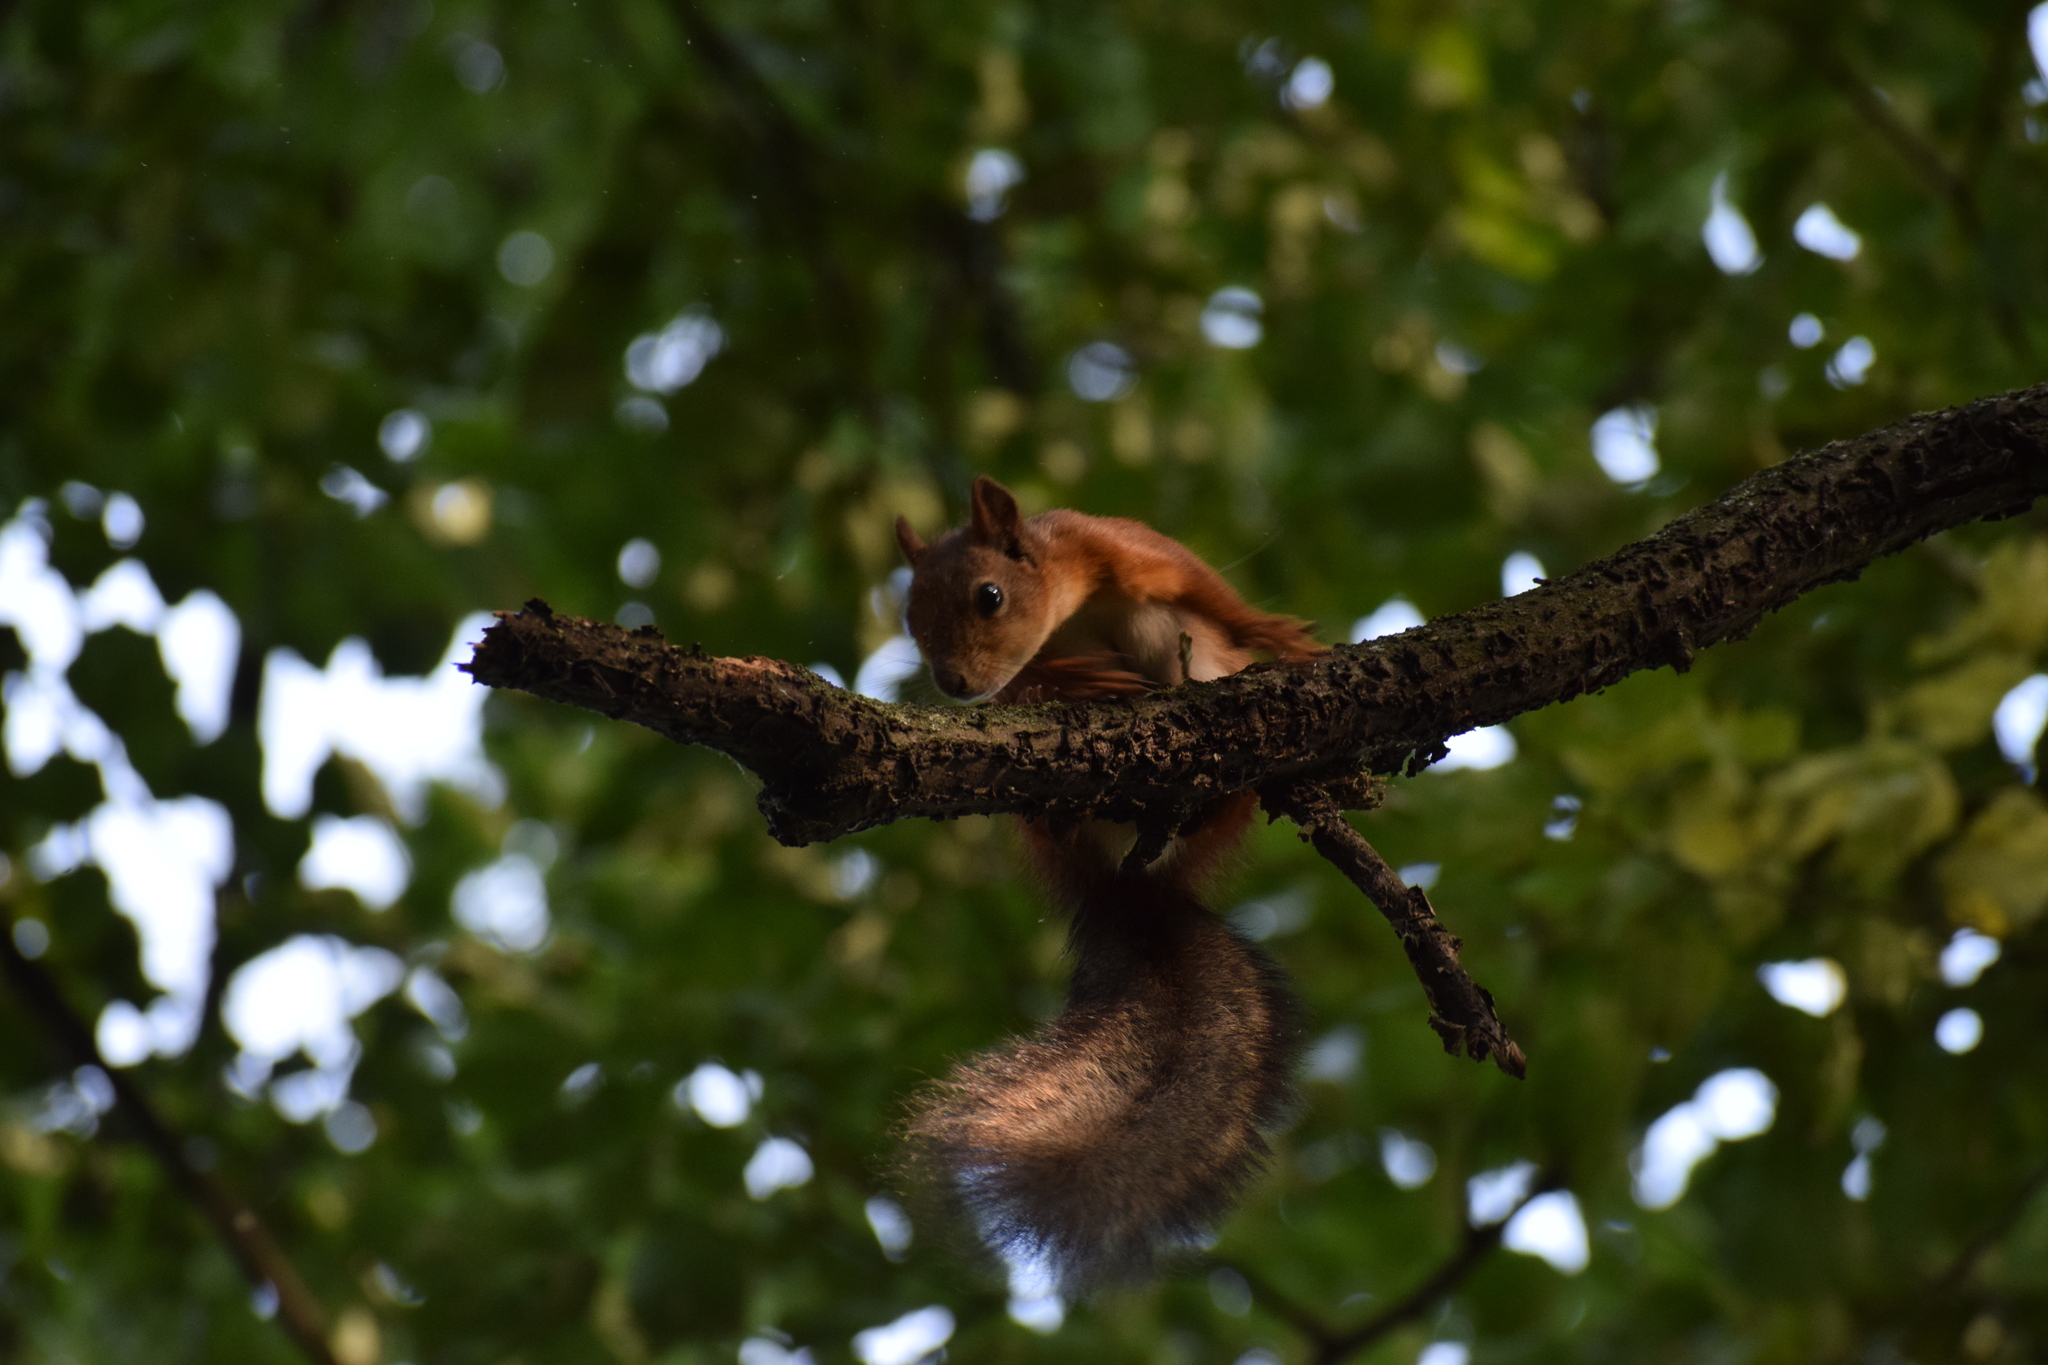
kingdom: Animalia
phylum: Chordata
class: Mammalia
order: Rodentia
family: Sciuridae
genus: Sciurus
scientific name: Sciurus vulgaris
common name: Eurasian red squirrel
